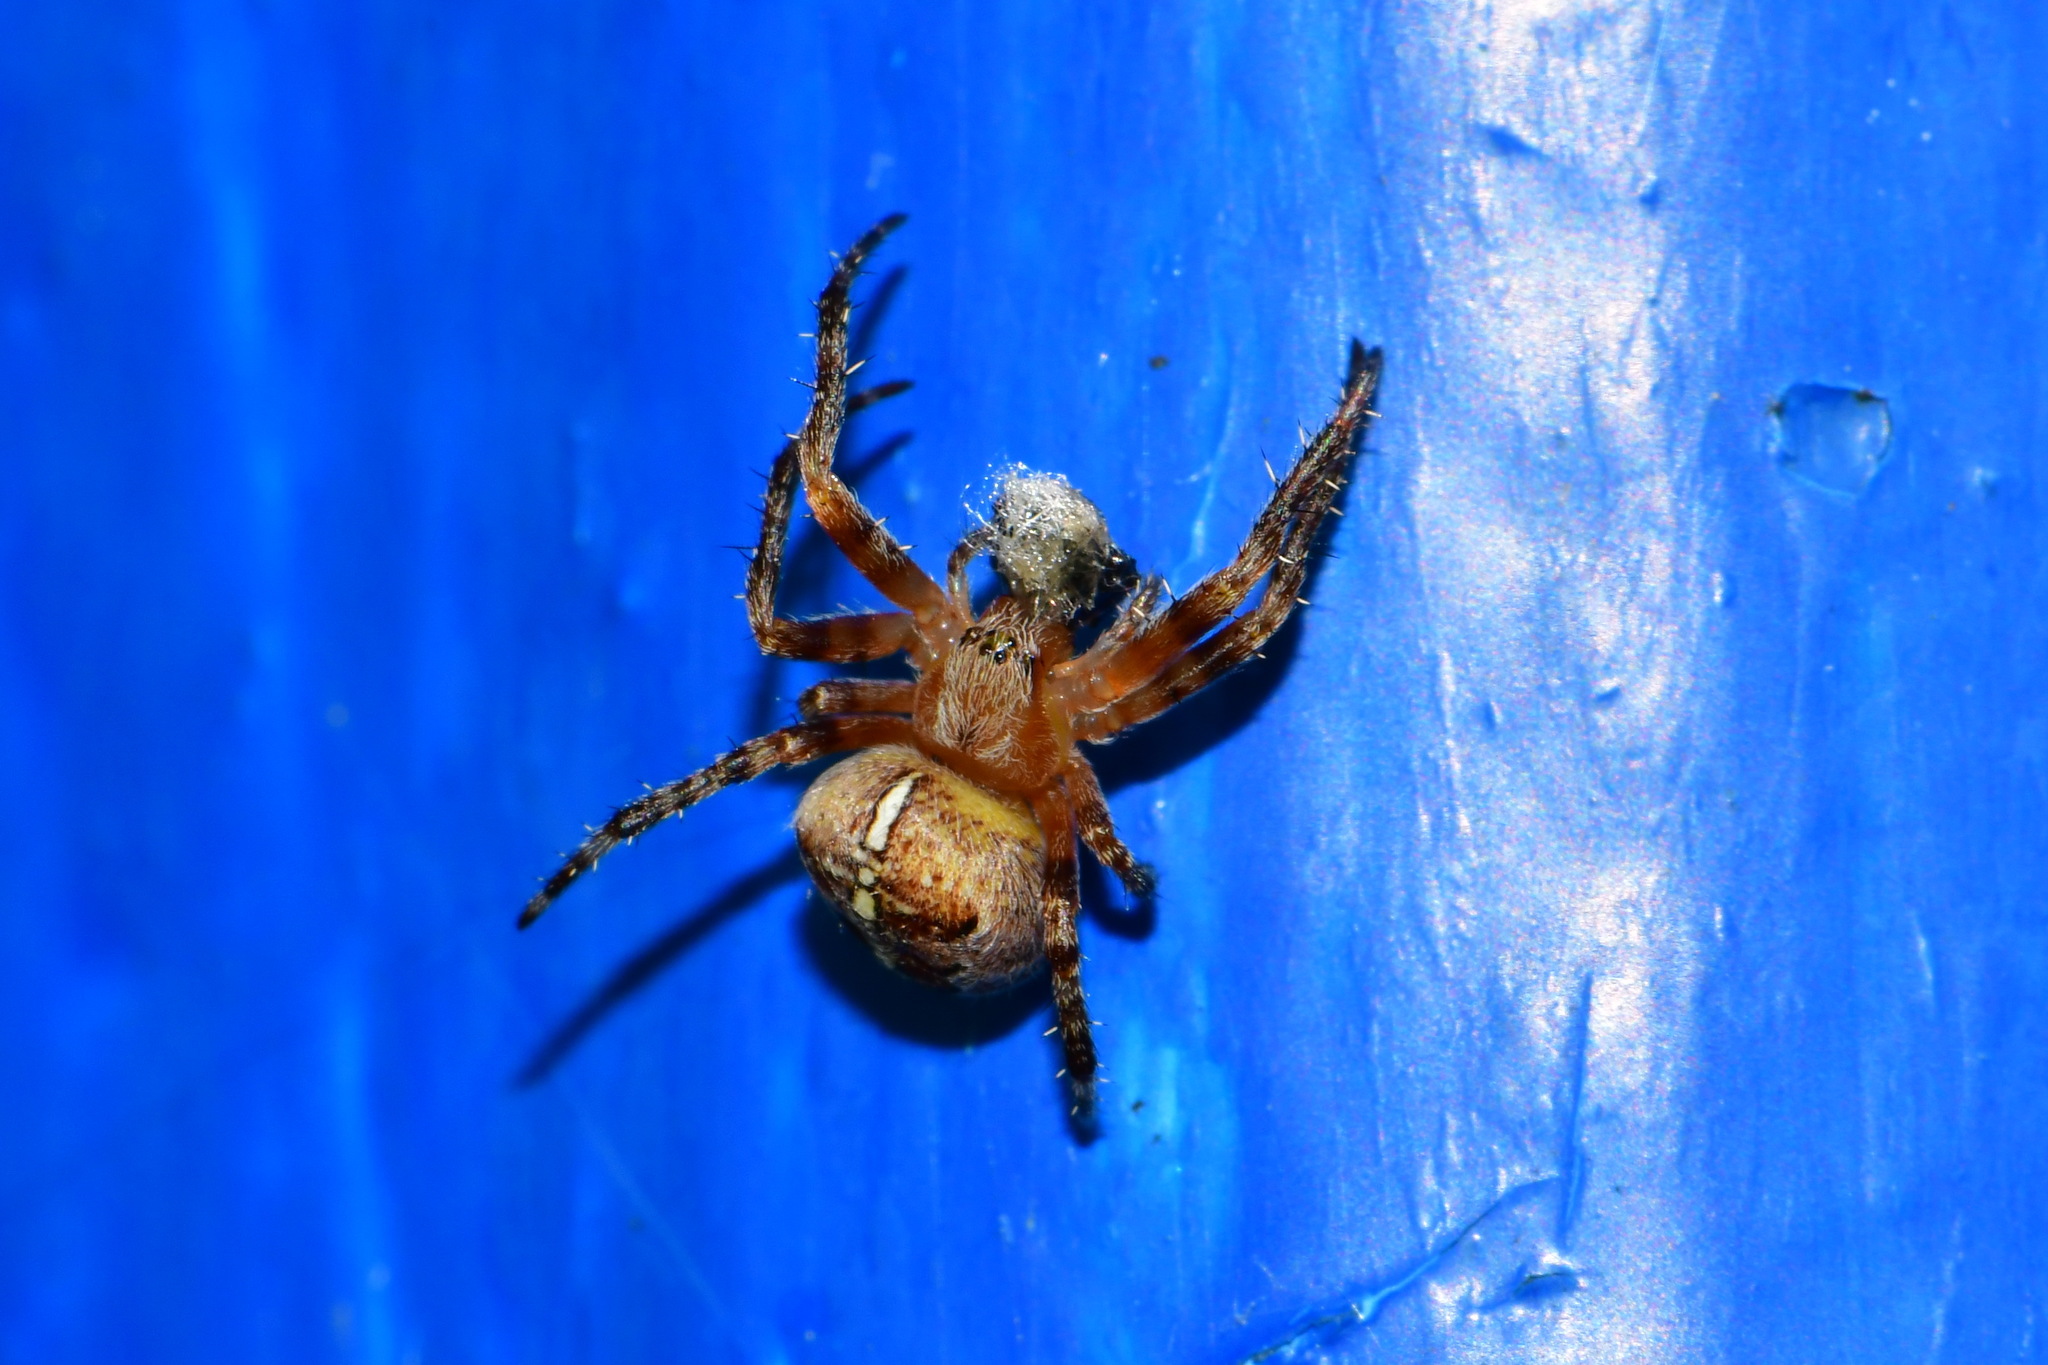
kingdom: Animalia
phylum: Arthropoda
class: Arachnida
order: Araneae
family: Araneidae
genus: Araneus
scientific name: Araneus diadematus
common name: Cross orbweaver
